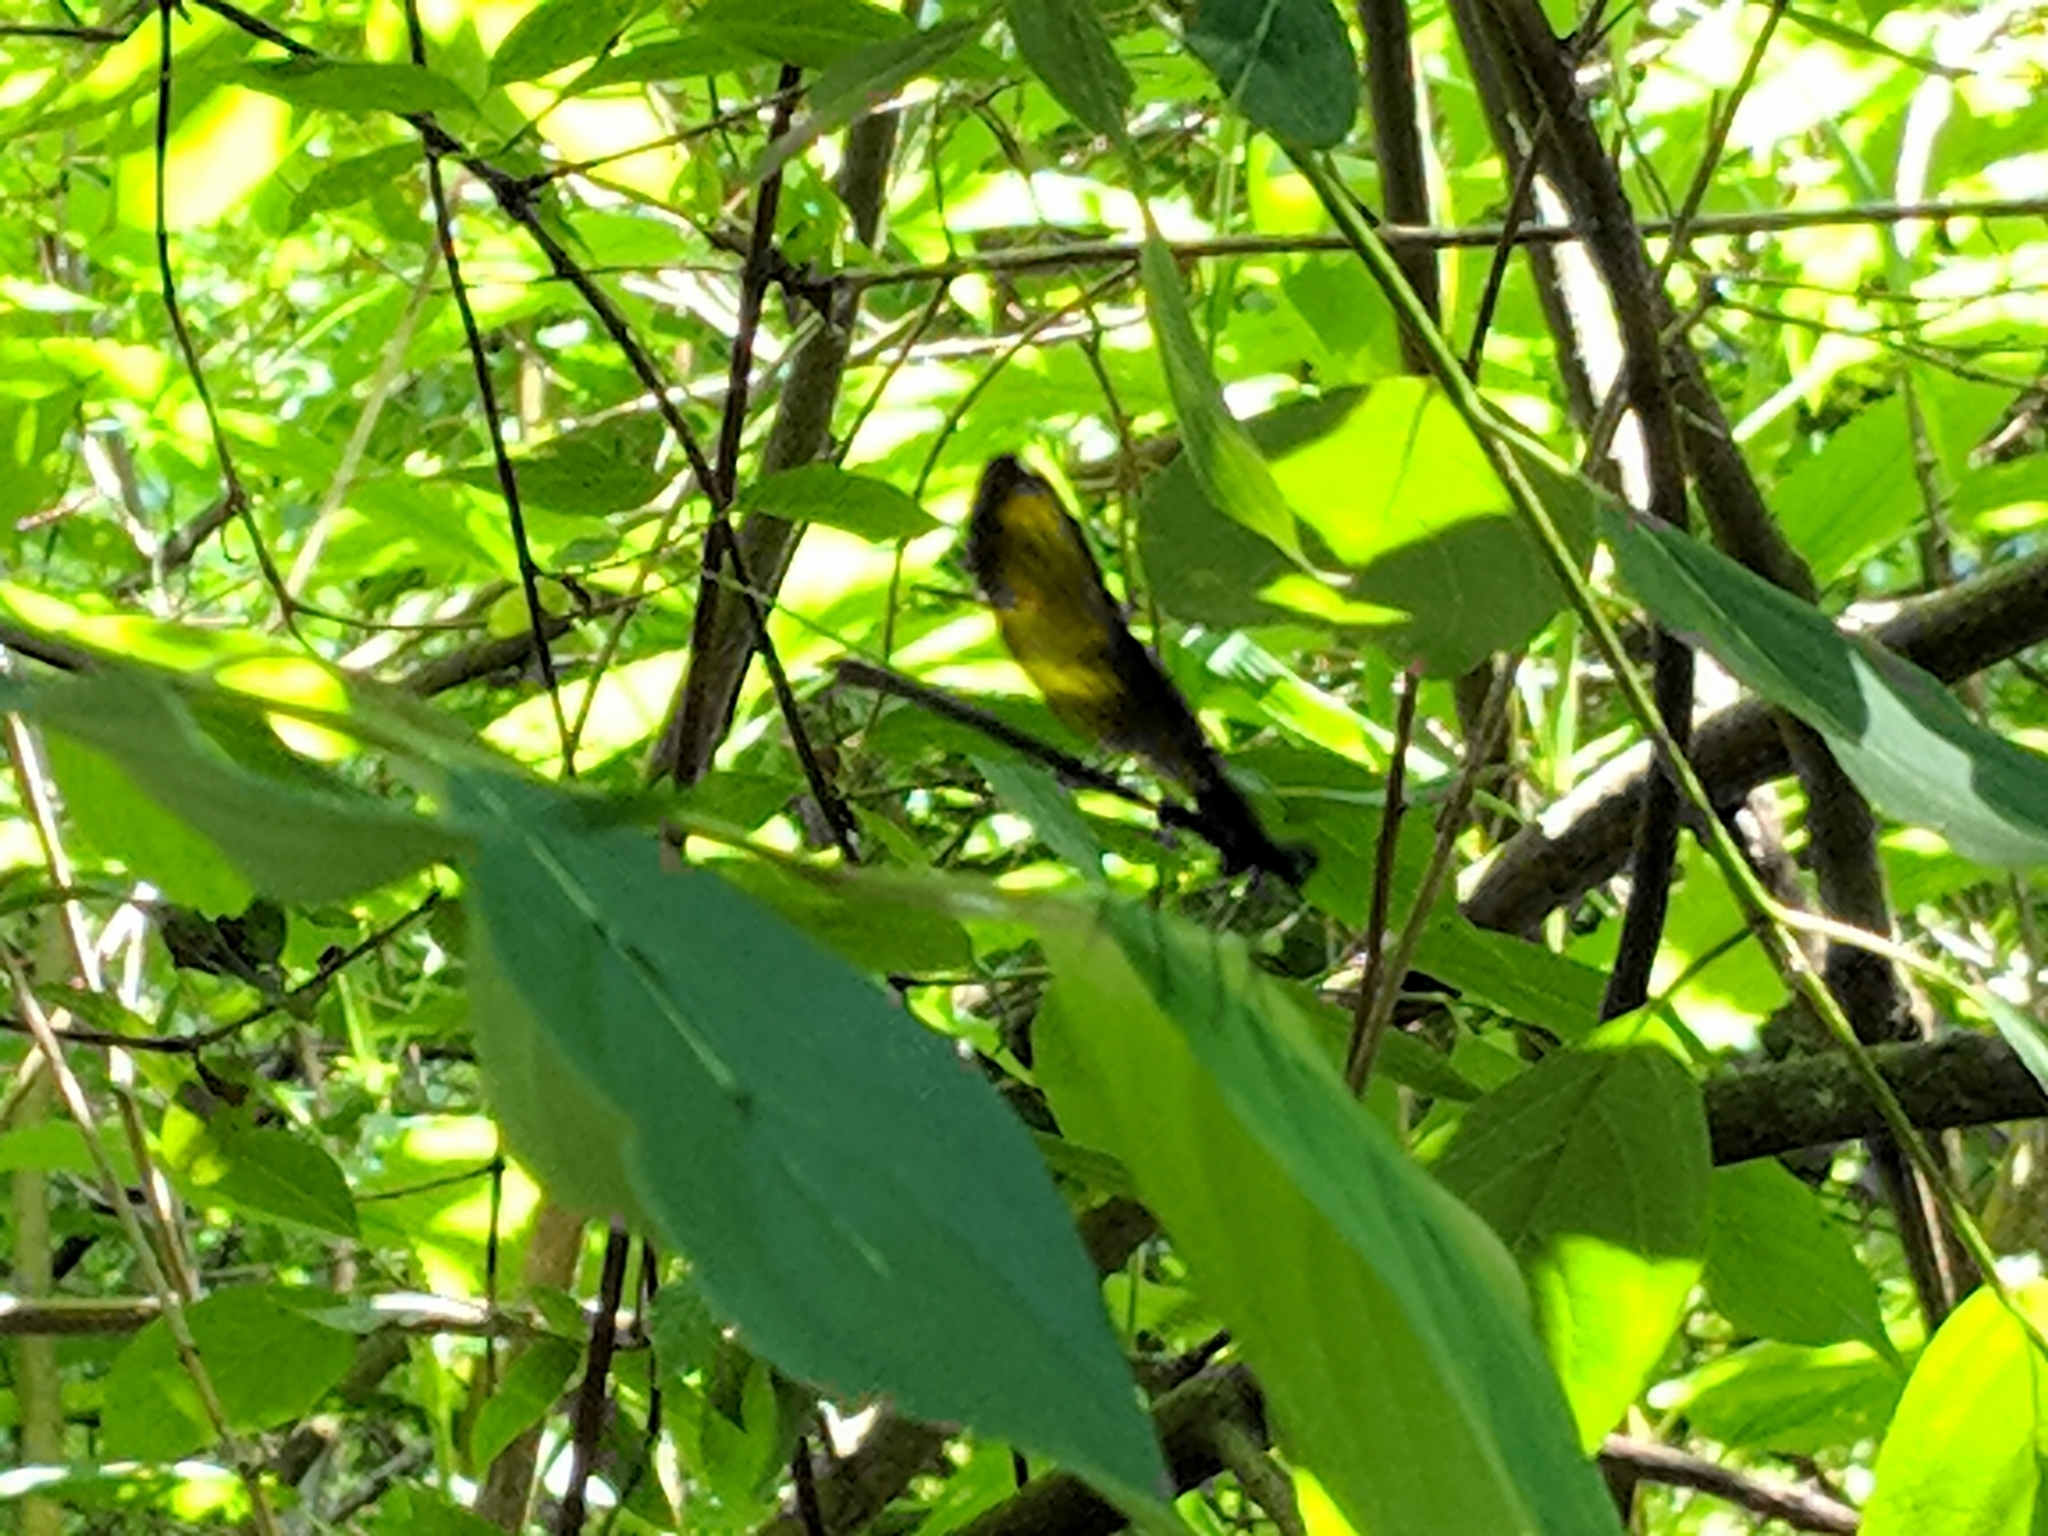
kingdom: Animalia
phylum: Arthropoda
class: Insecta
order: Odonata
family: Calopterygidae
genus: Calopteryx
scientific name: Calopteryx maculata
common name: Ebony jewelwing
